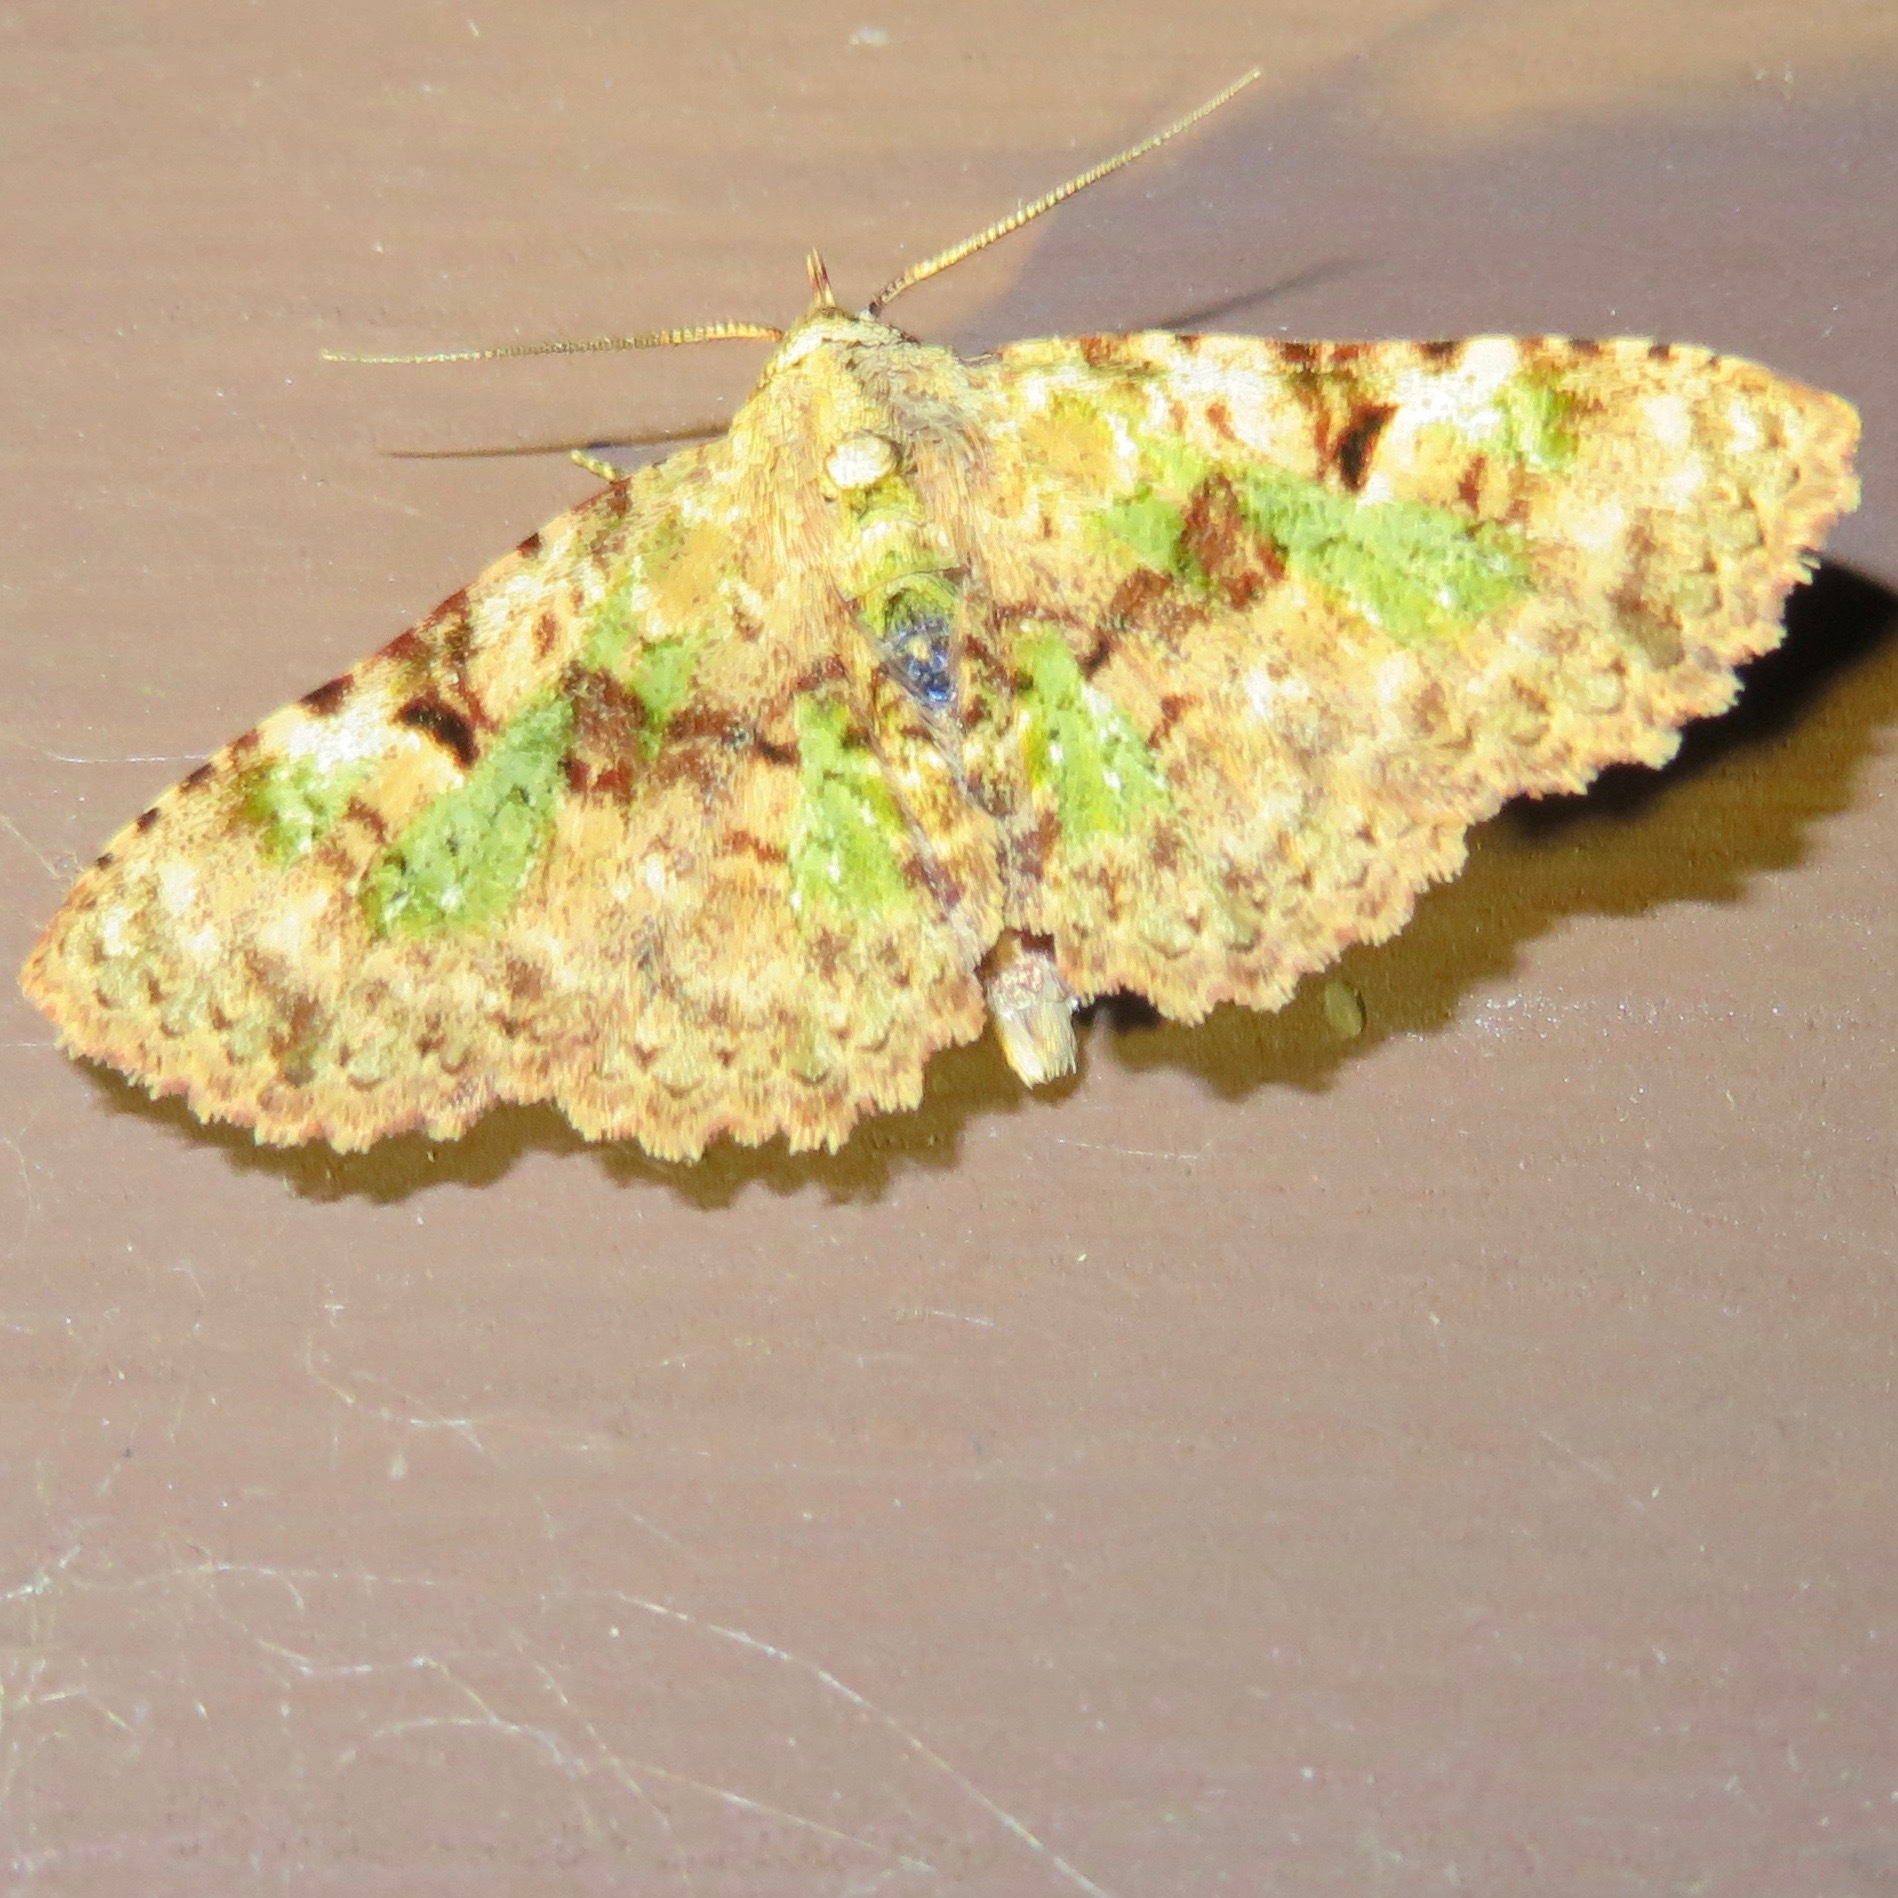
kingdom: Animalia
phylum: Arthropoda
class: Insecta
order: Lepidoptera
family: Erebidae
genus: Metalectra
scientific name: Metalectra marginata
